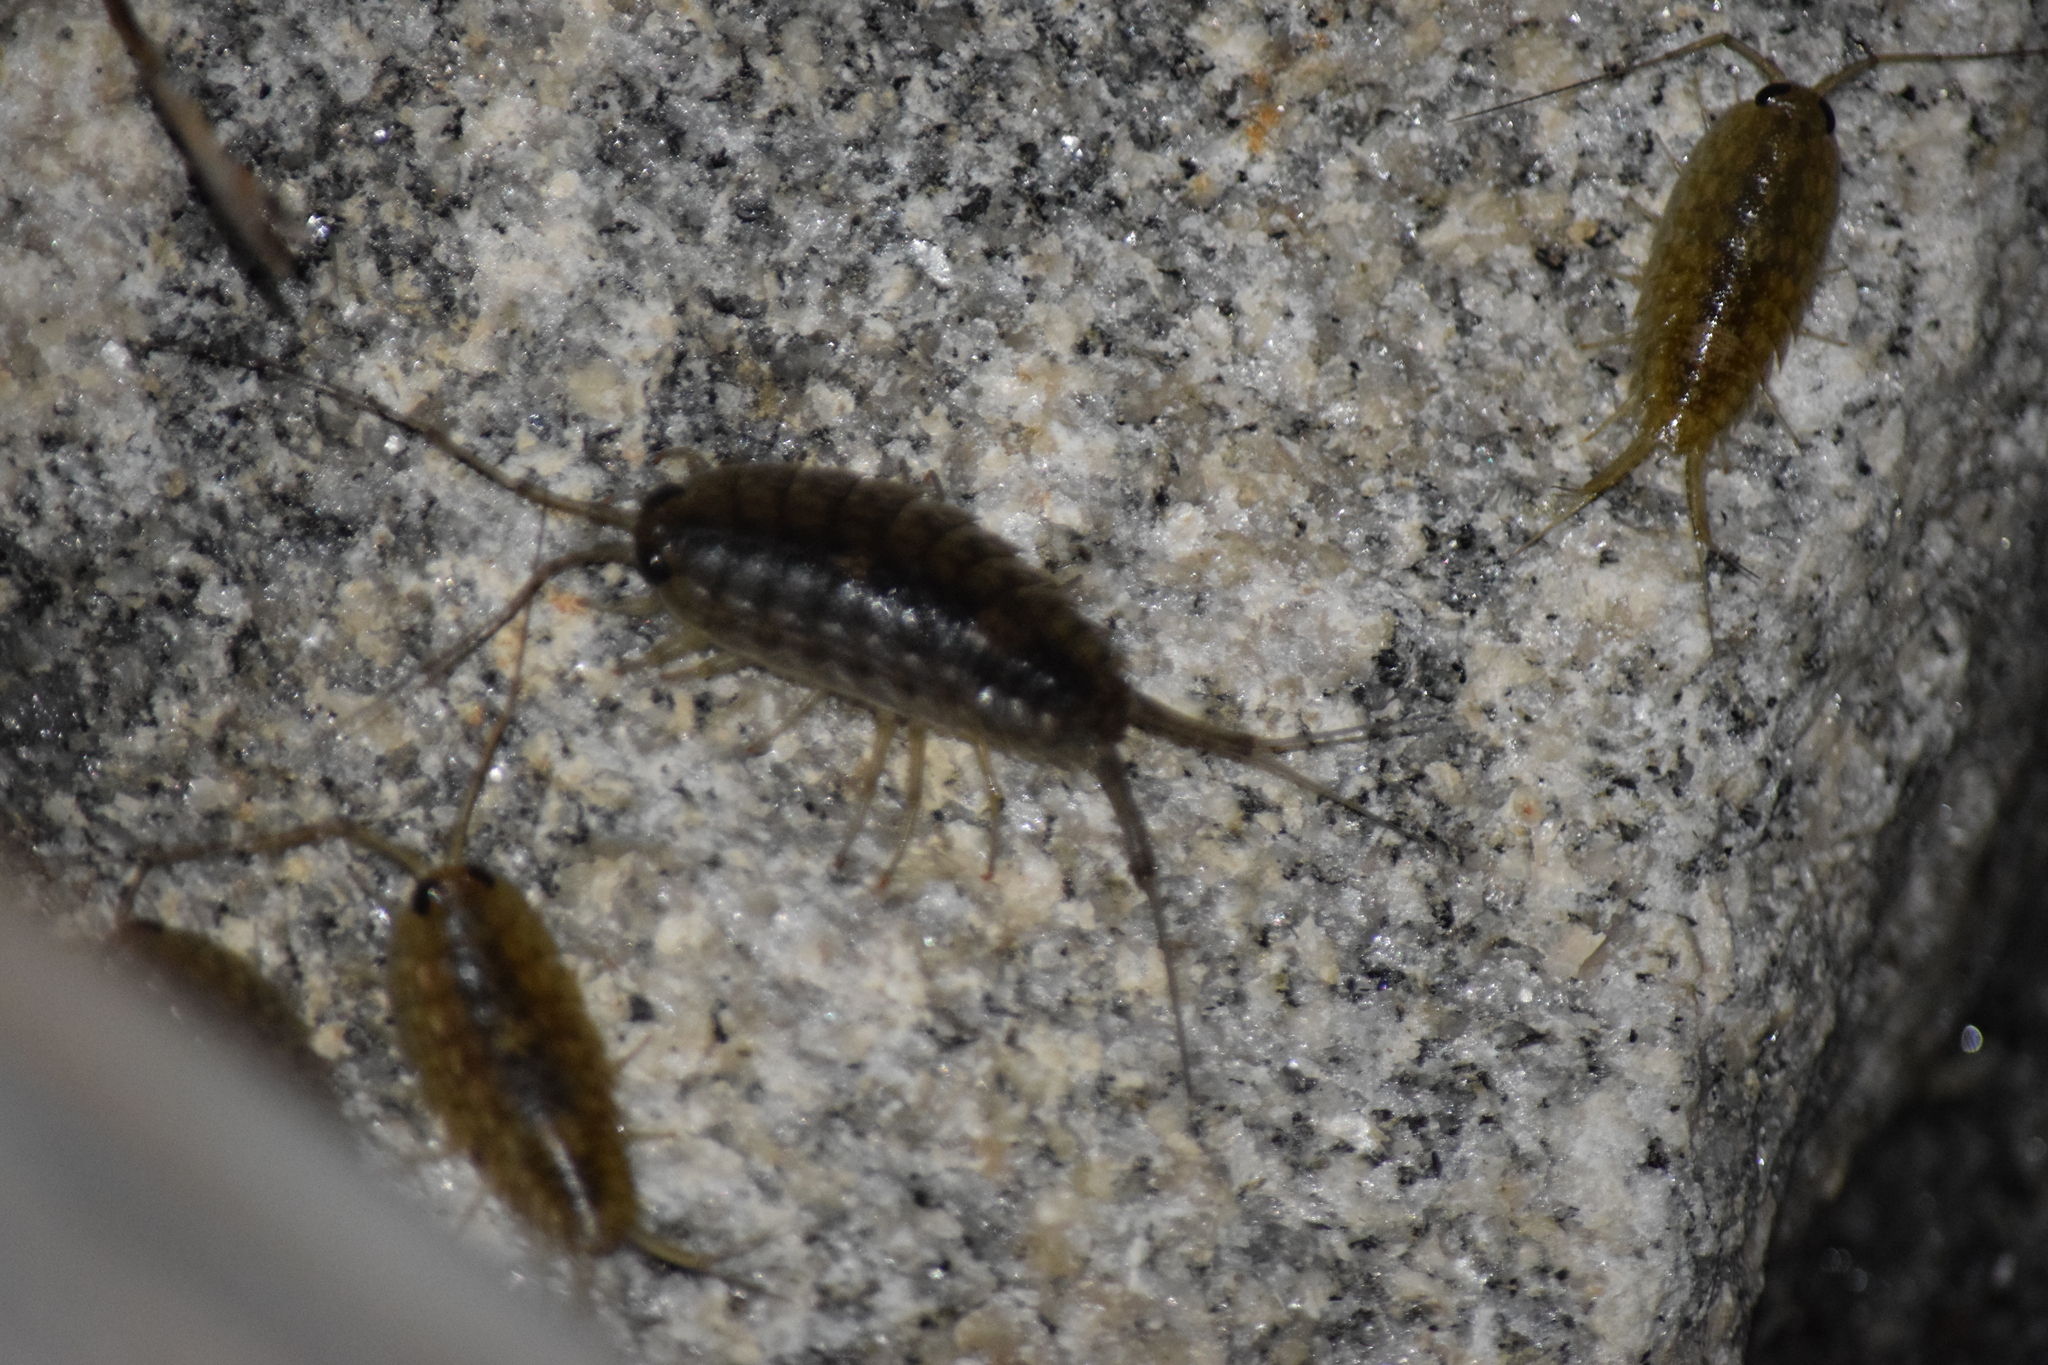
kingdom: Animalia
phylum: Arthropoda
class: Malacostraca
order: Isopoda
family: Ligiidae
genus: Ligia
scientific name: Ligia exotica
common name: Wharf roach
